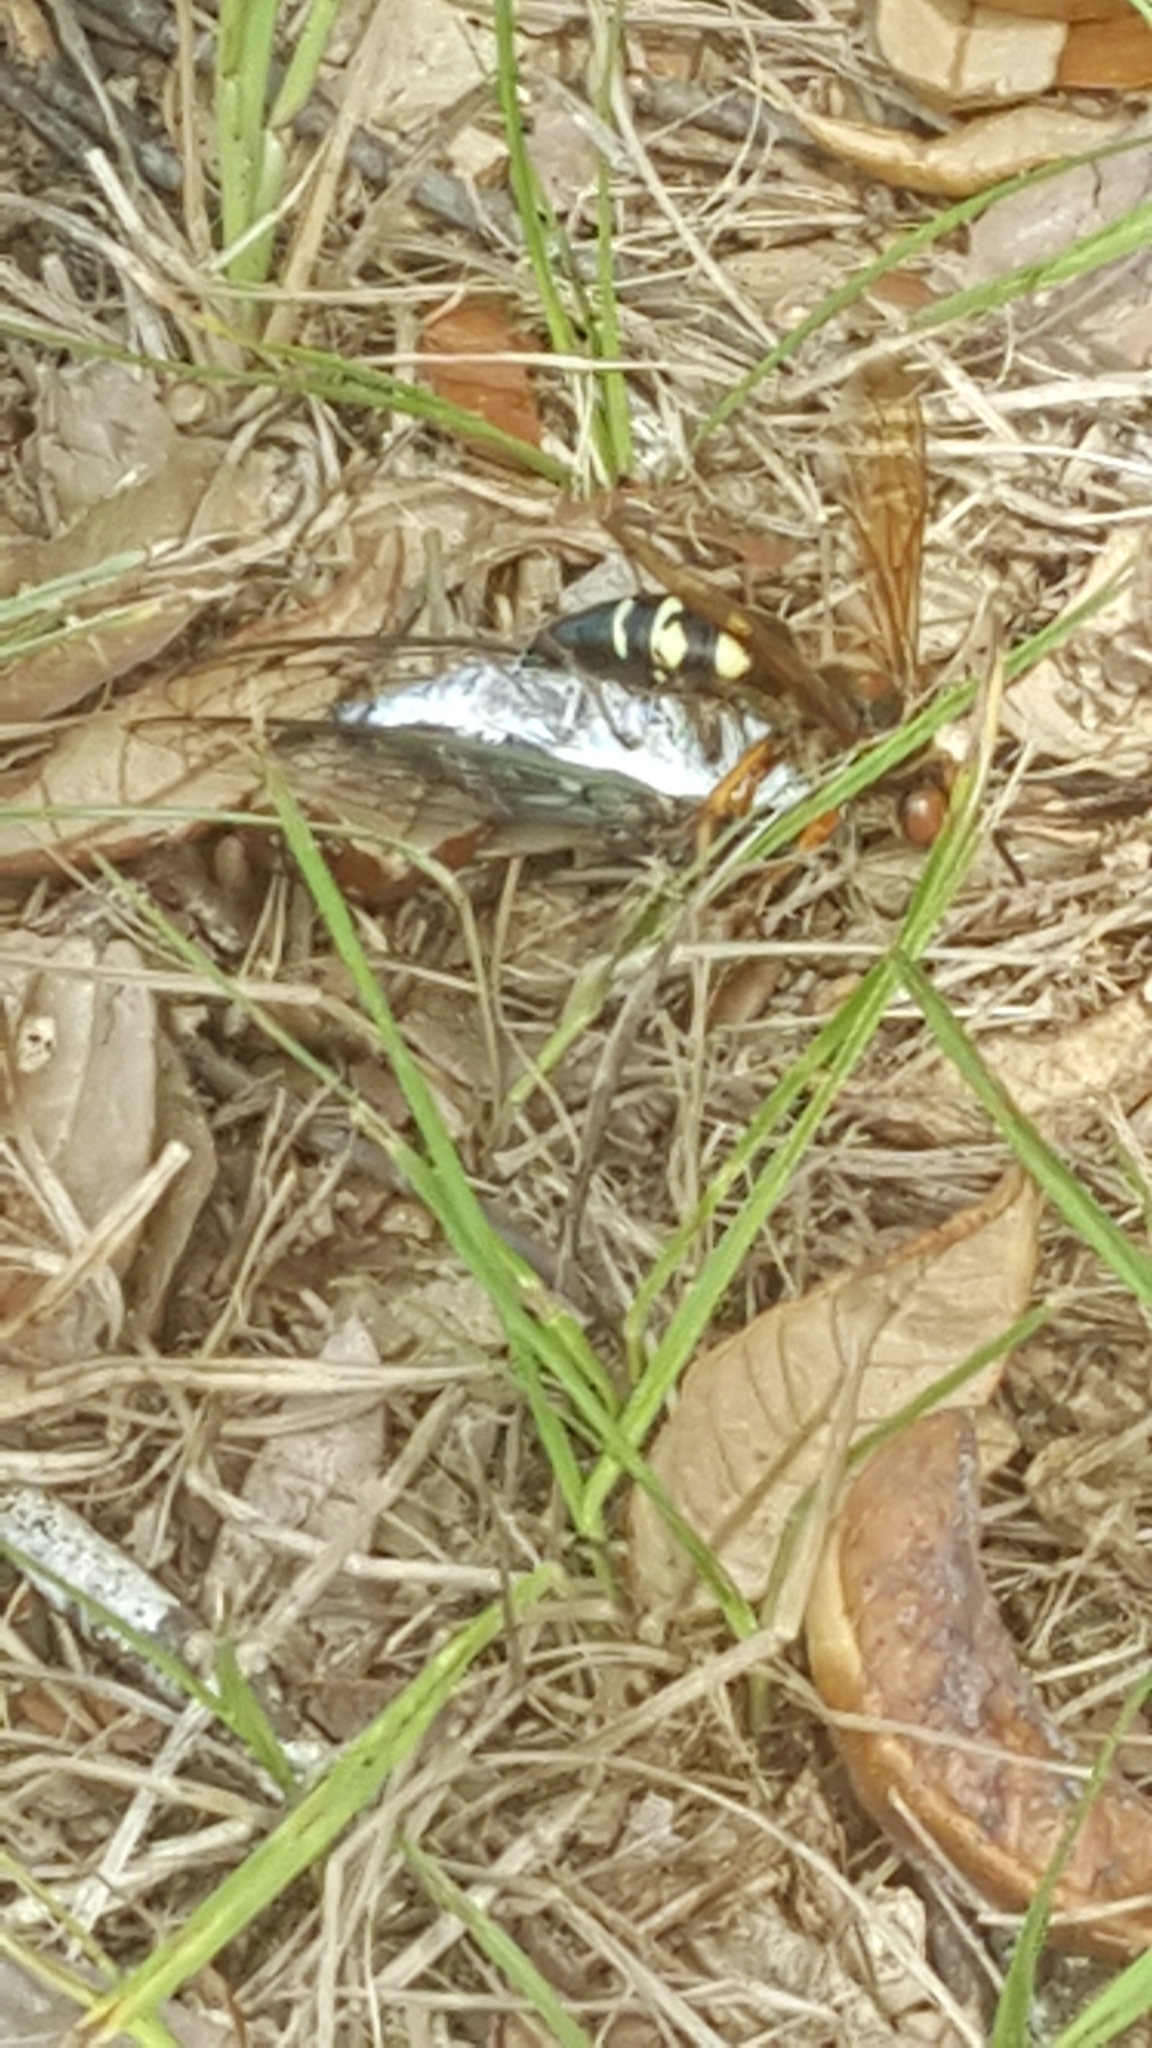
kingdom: Animalia
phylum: Arthropoda
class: Insecta
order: Hymenoptera
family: Crabronidae
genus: Sphecius
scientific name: Sphecius speciosus
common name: Cicada killer
